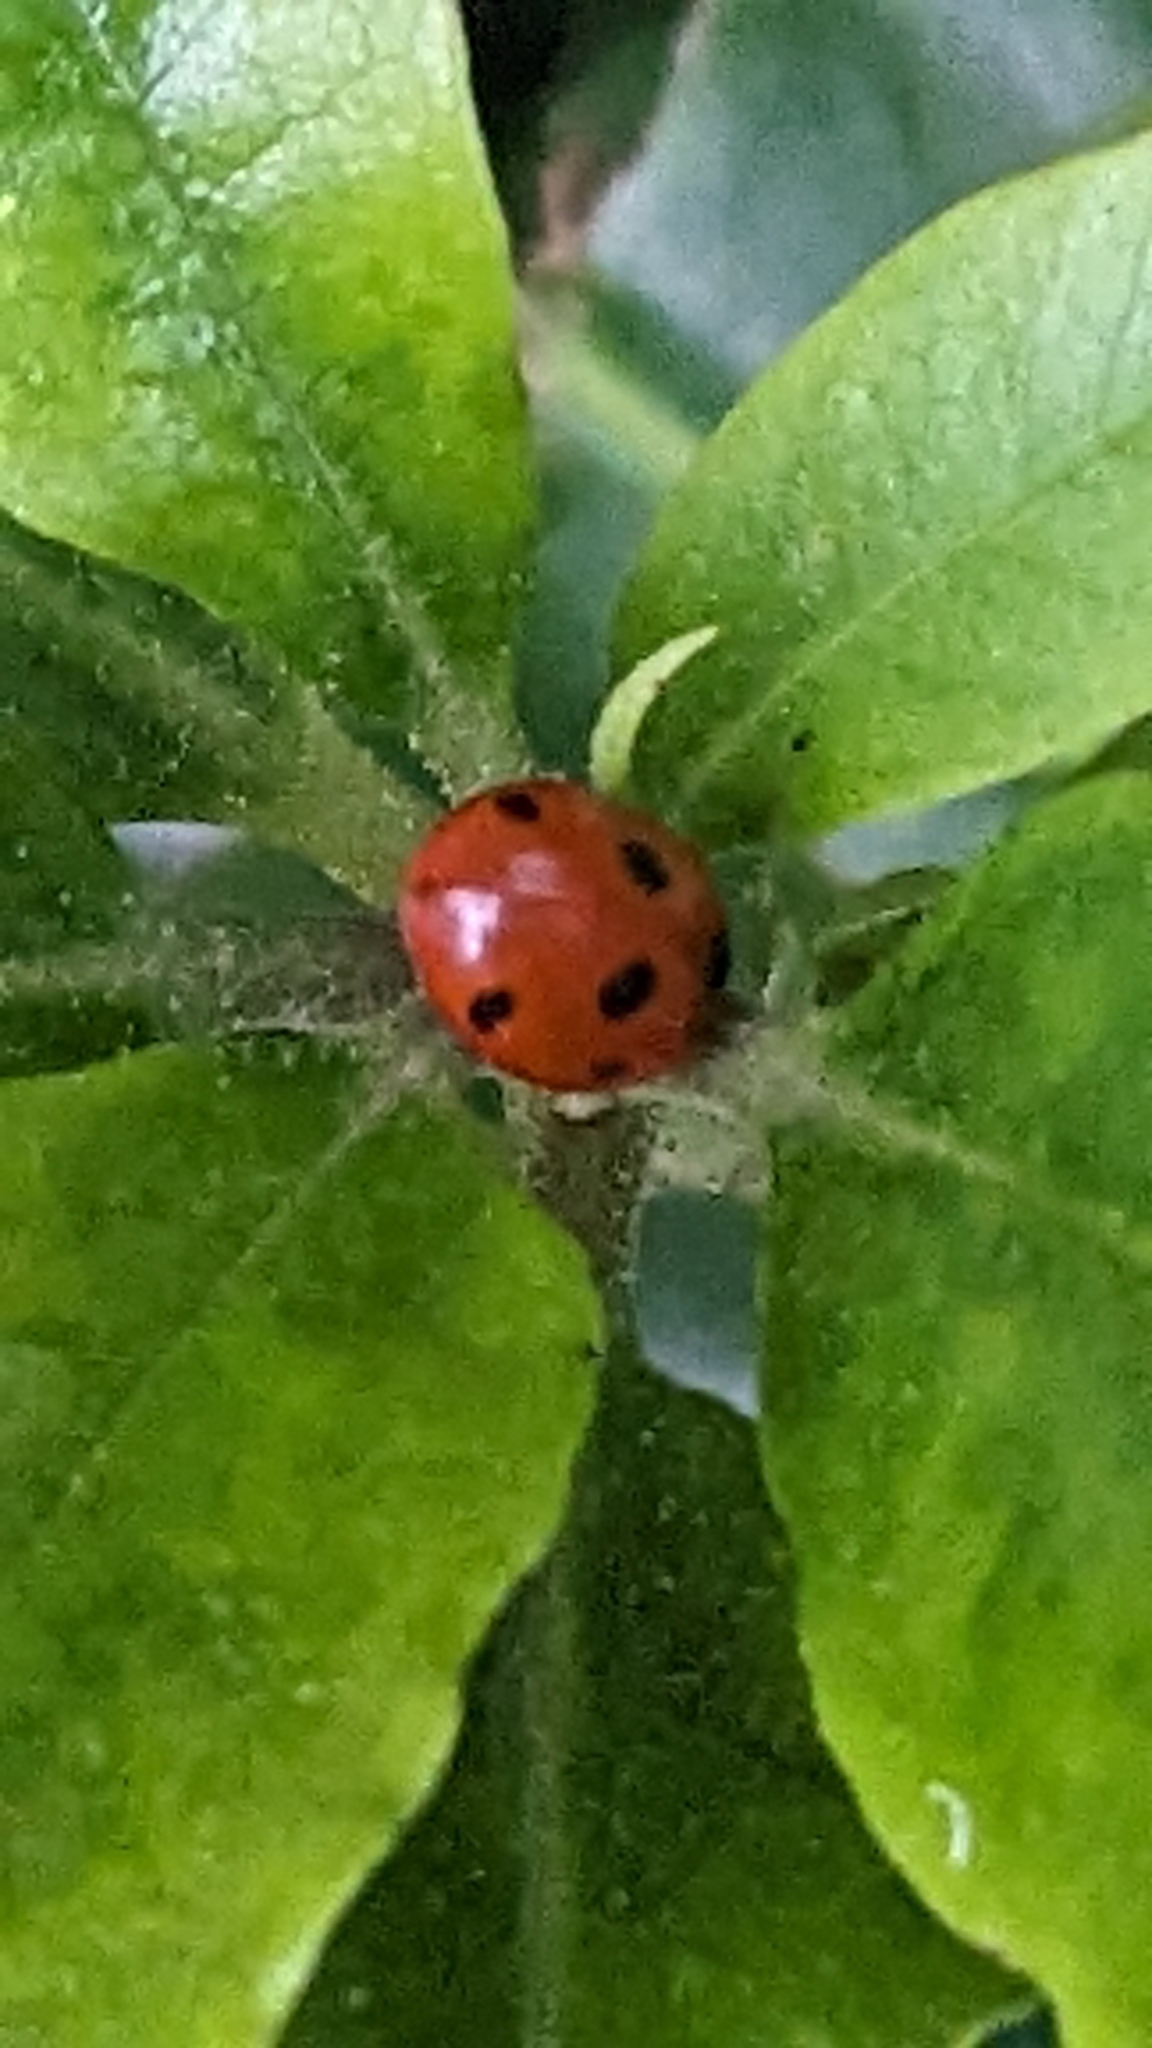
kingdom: Animalia
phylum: Arthropoda
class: Insecta
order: Coleoptera
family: Coccinellidae
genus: Coccinella
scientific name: Coccinella septempunctata
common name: Sevenspotted lady beetle
